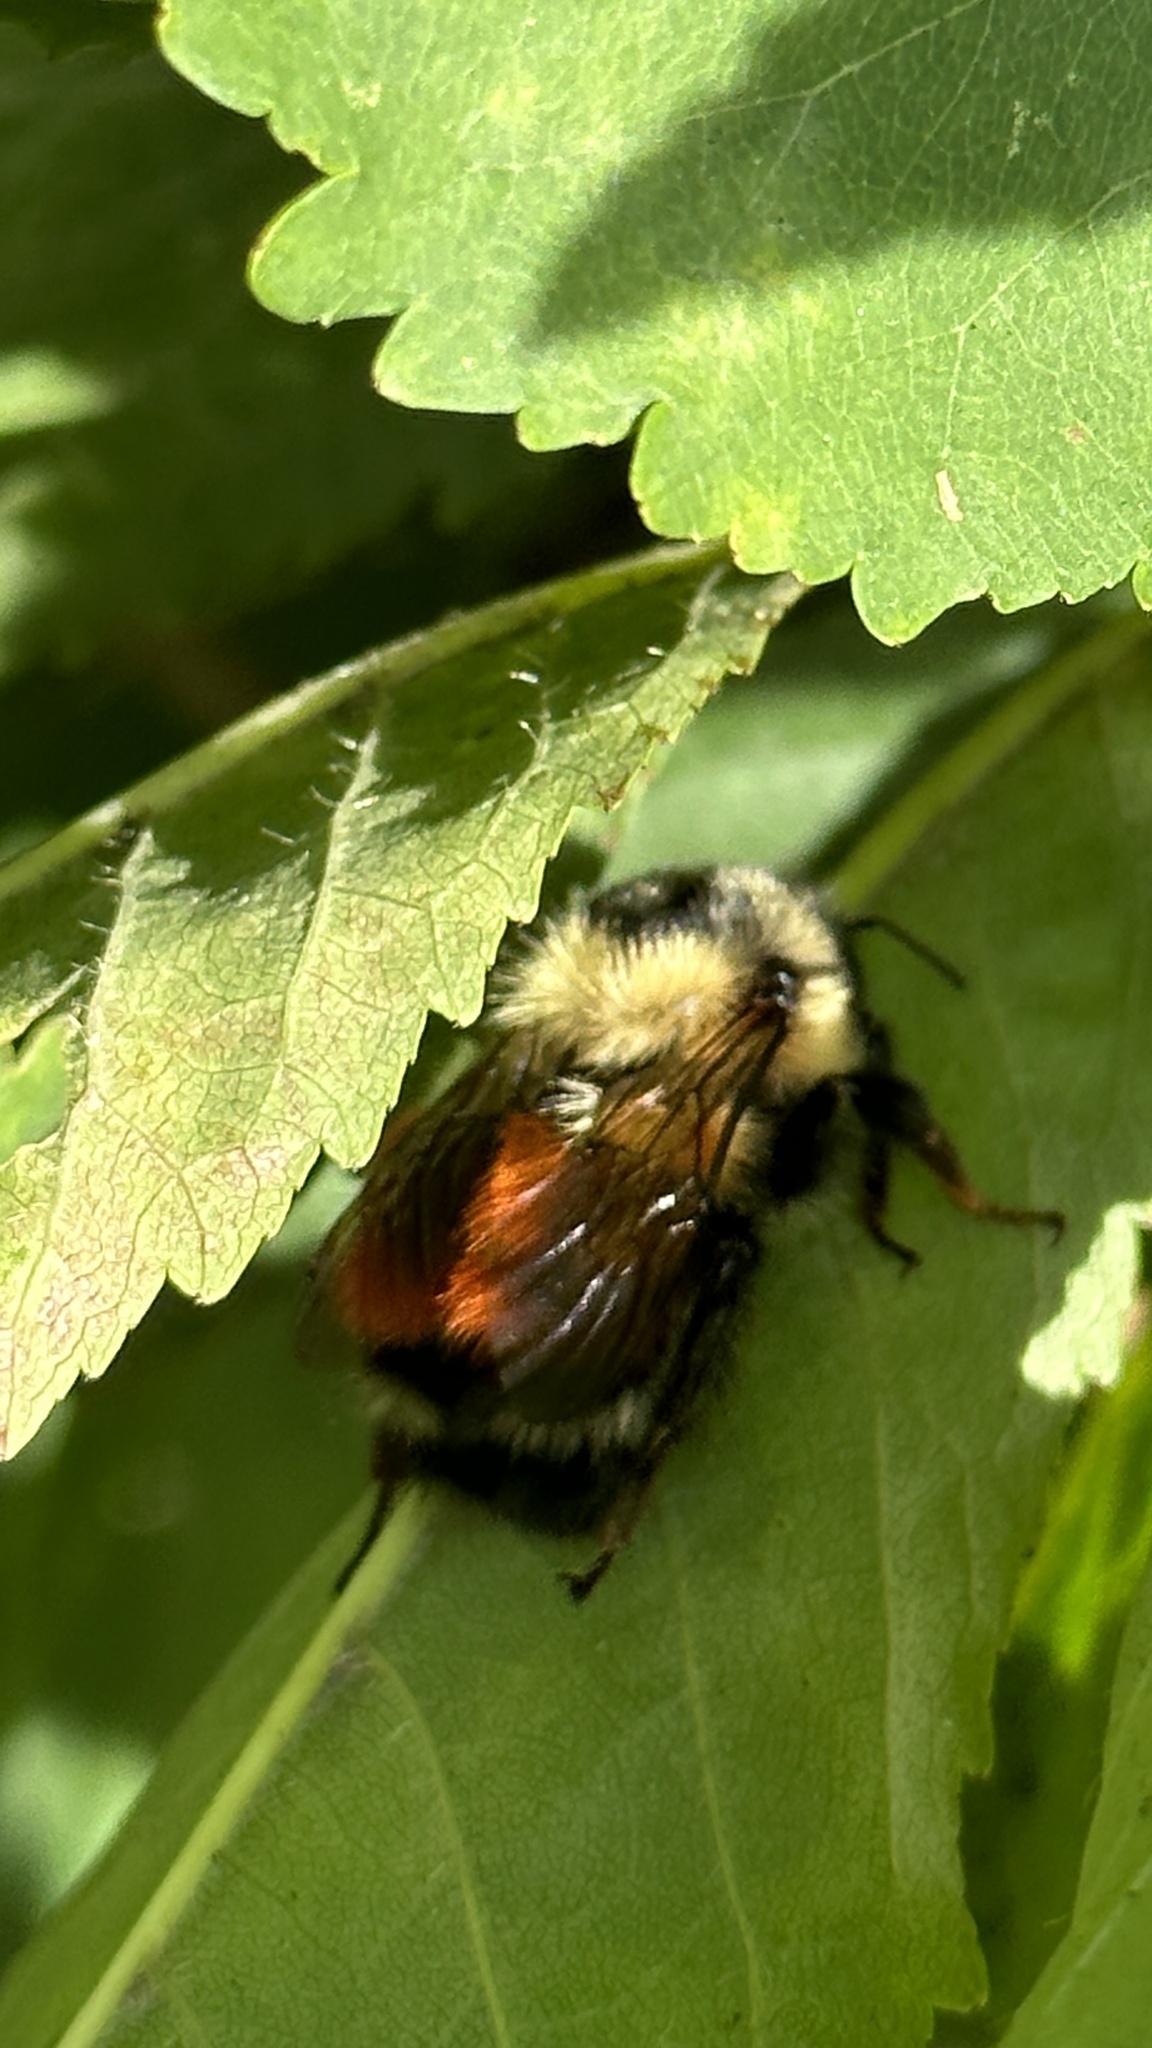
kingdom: Animalia
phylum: Arthropoda
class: Insecta
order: Hymenoptera
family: Apidae
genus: Bombus
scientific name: Bombus melanopygus
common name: Black tail bumble bee
